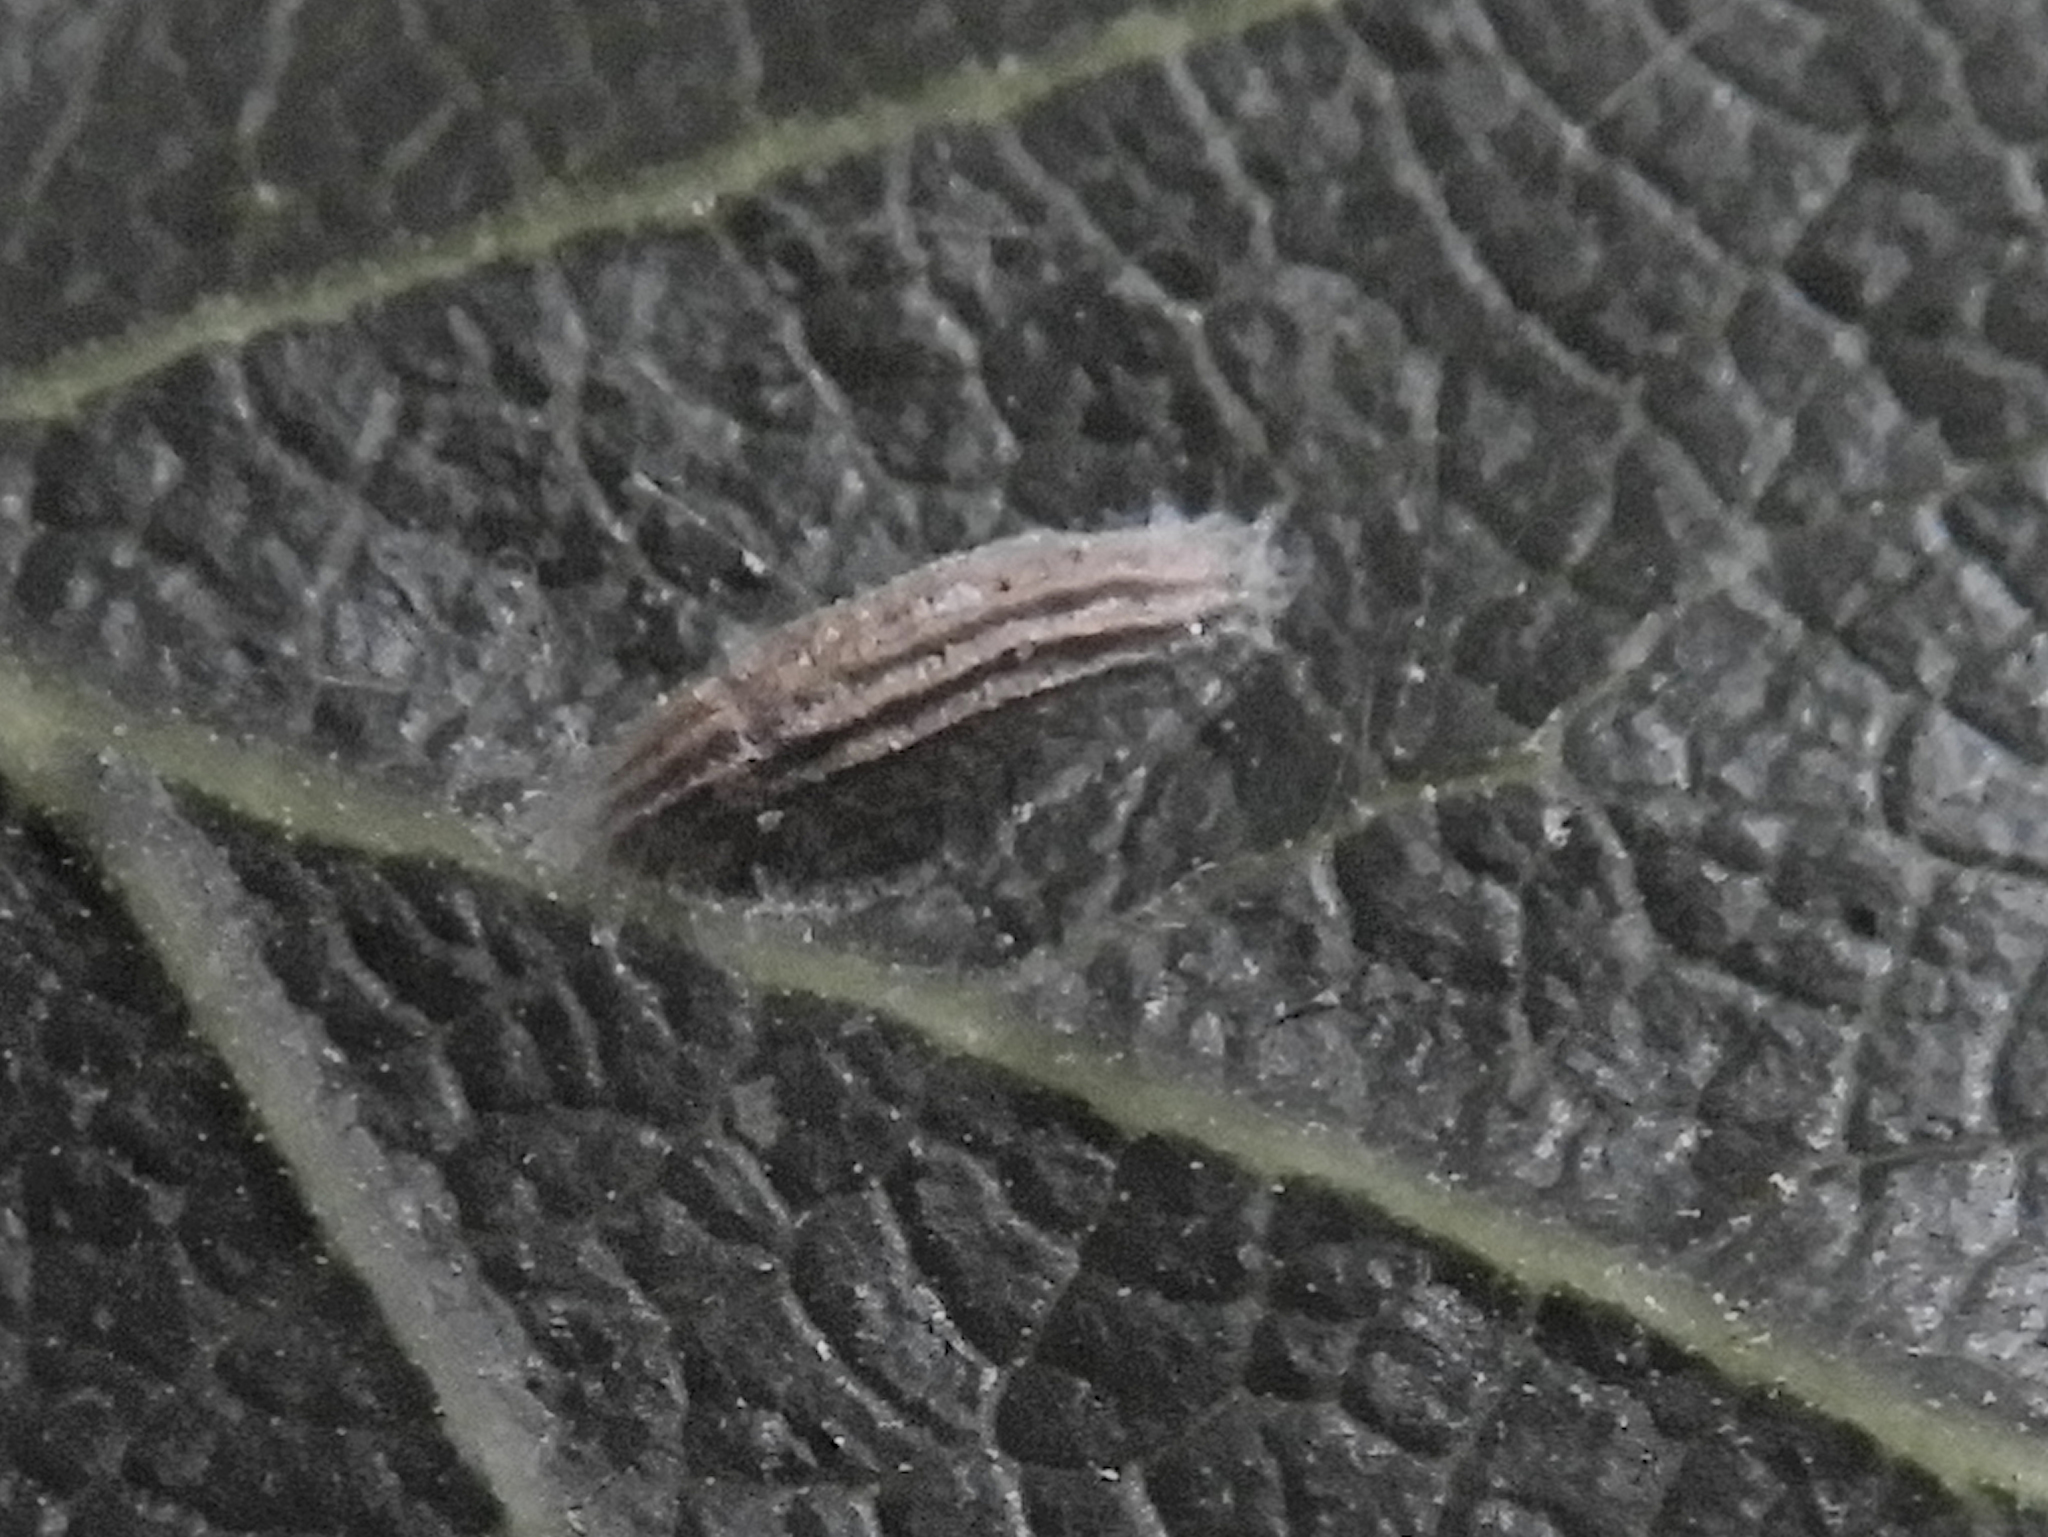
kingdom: Animalia
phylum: Arthropoda
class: Insecta
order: Lepidoptera
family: Bucculatricidae
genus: Bucculatrix
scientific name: Bucculatrix albertiella
